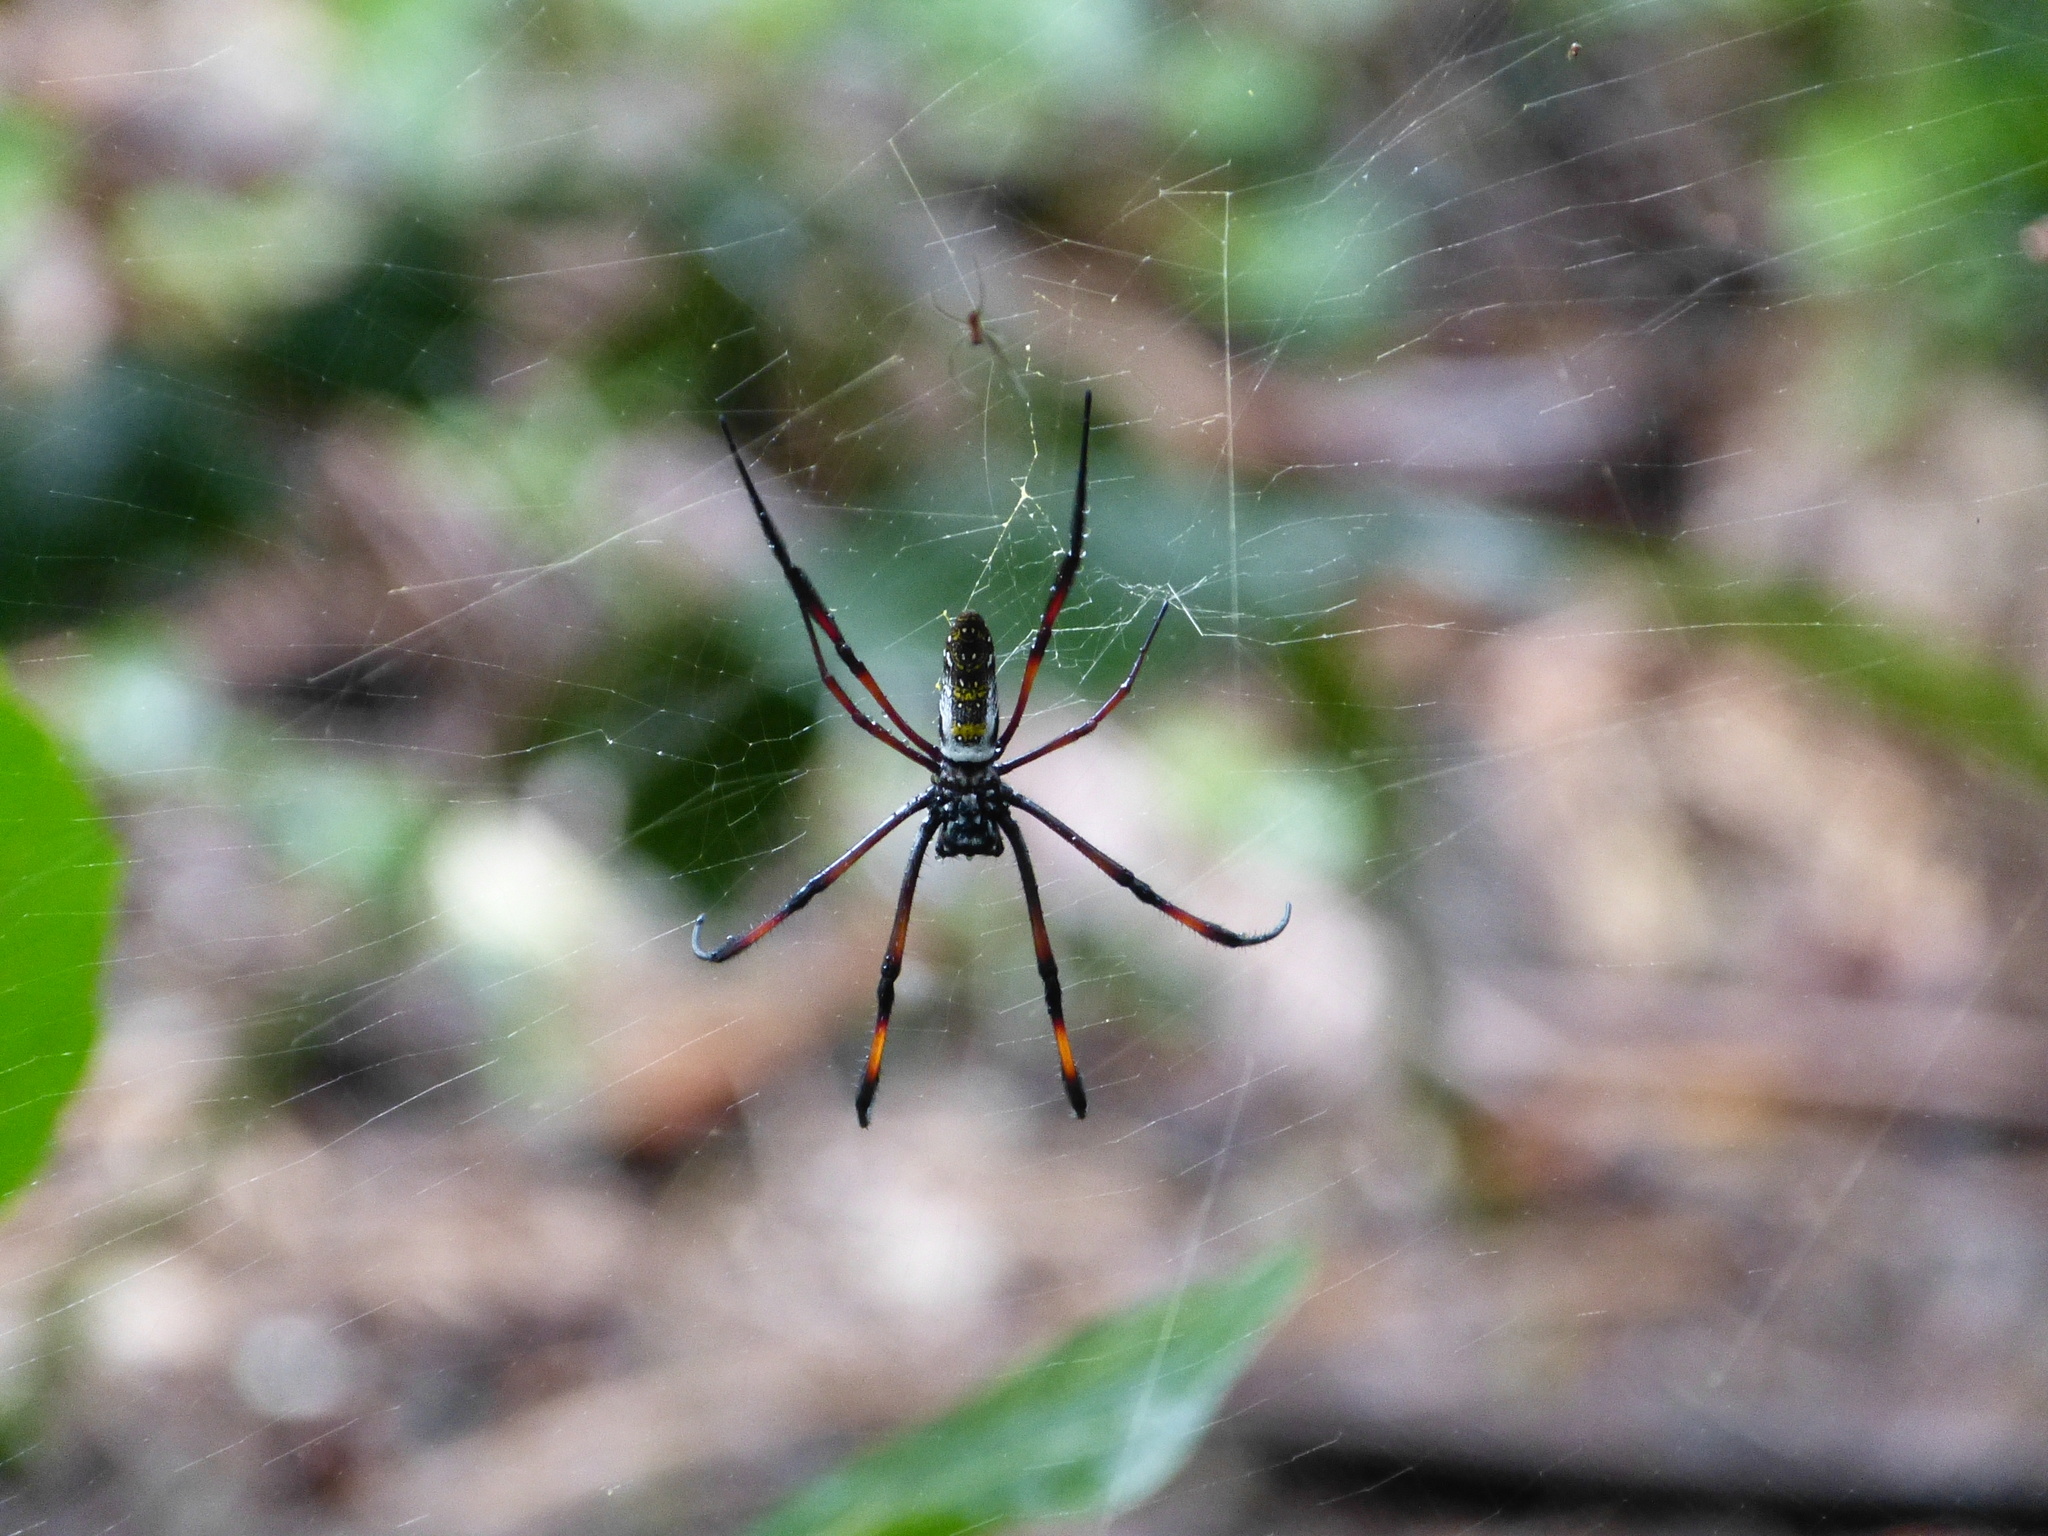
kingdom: Animalia
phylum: Arthropoda
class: Arachnida
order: Araneae
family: Araneidae
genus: Trichonephila
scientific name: Trichonephila inaurata
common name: Red-legged golden orb weaver
